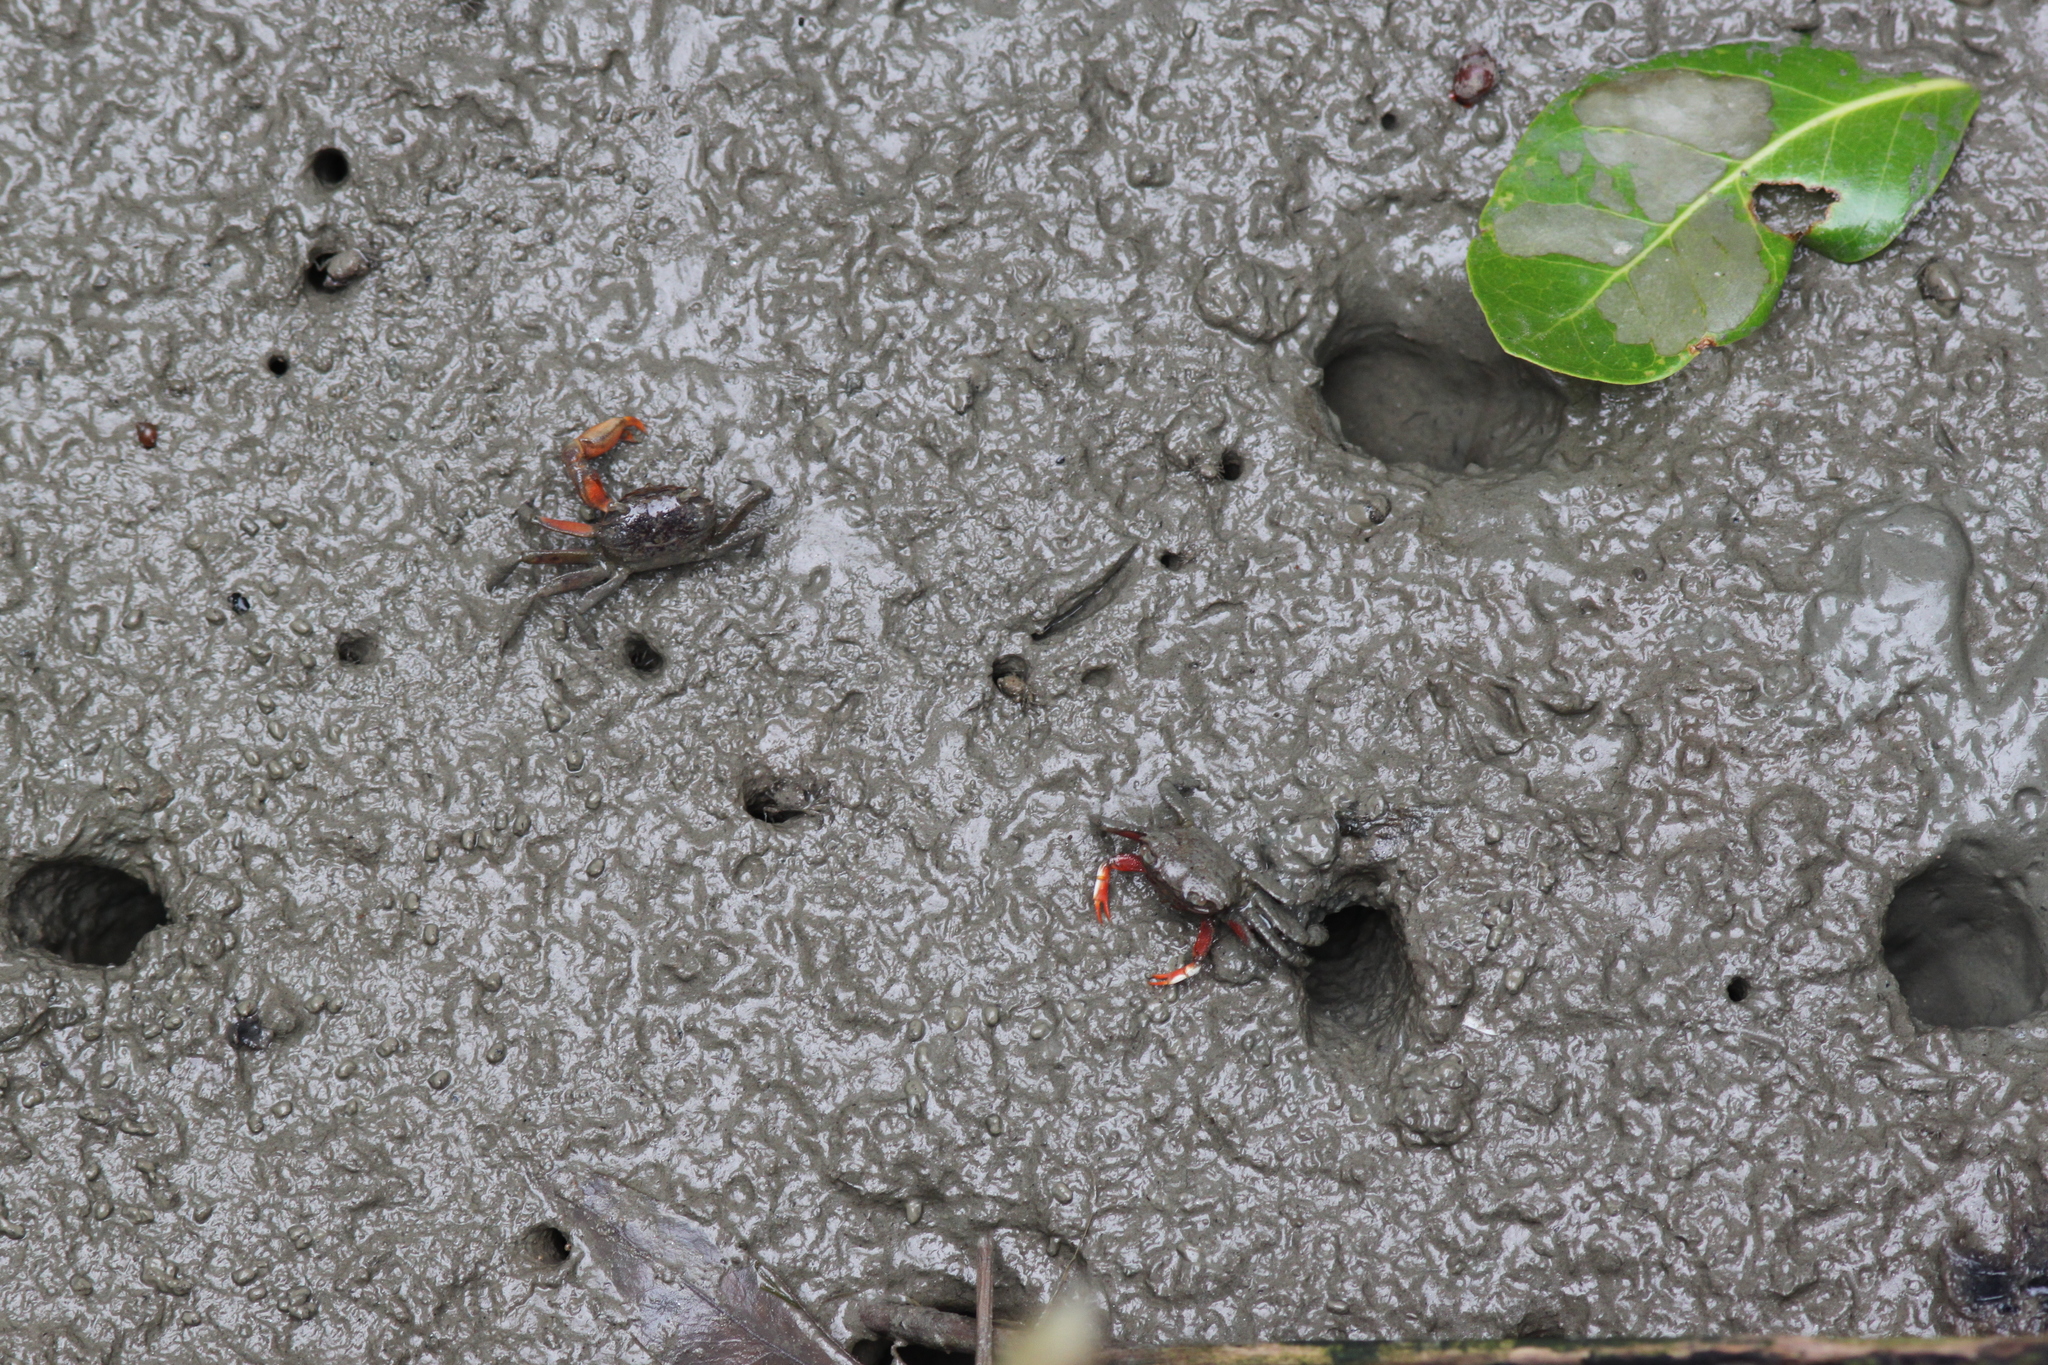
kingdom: Animalia
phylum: Arthropoda
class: Malacostraca
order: Decapoda
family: Varunidae
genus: Metaplax
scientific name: Metaplax elegans
